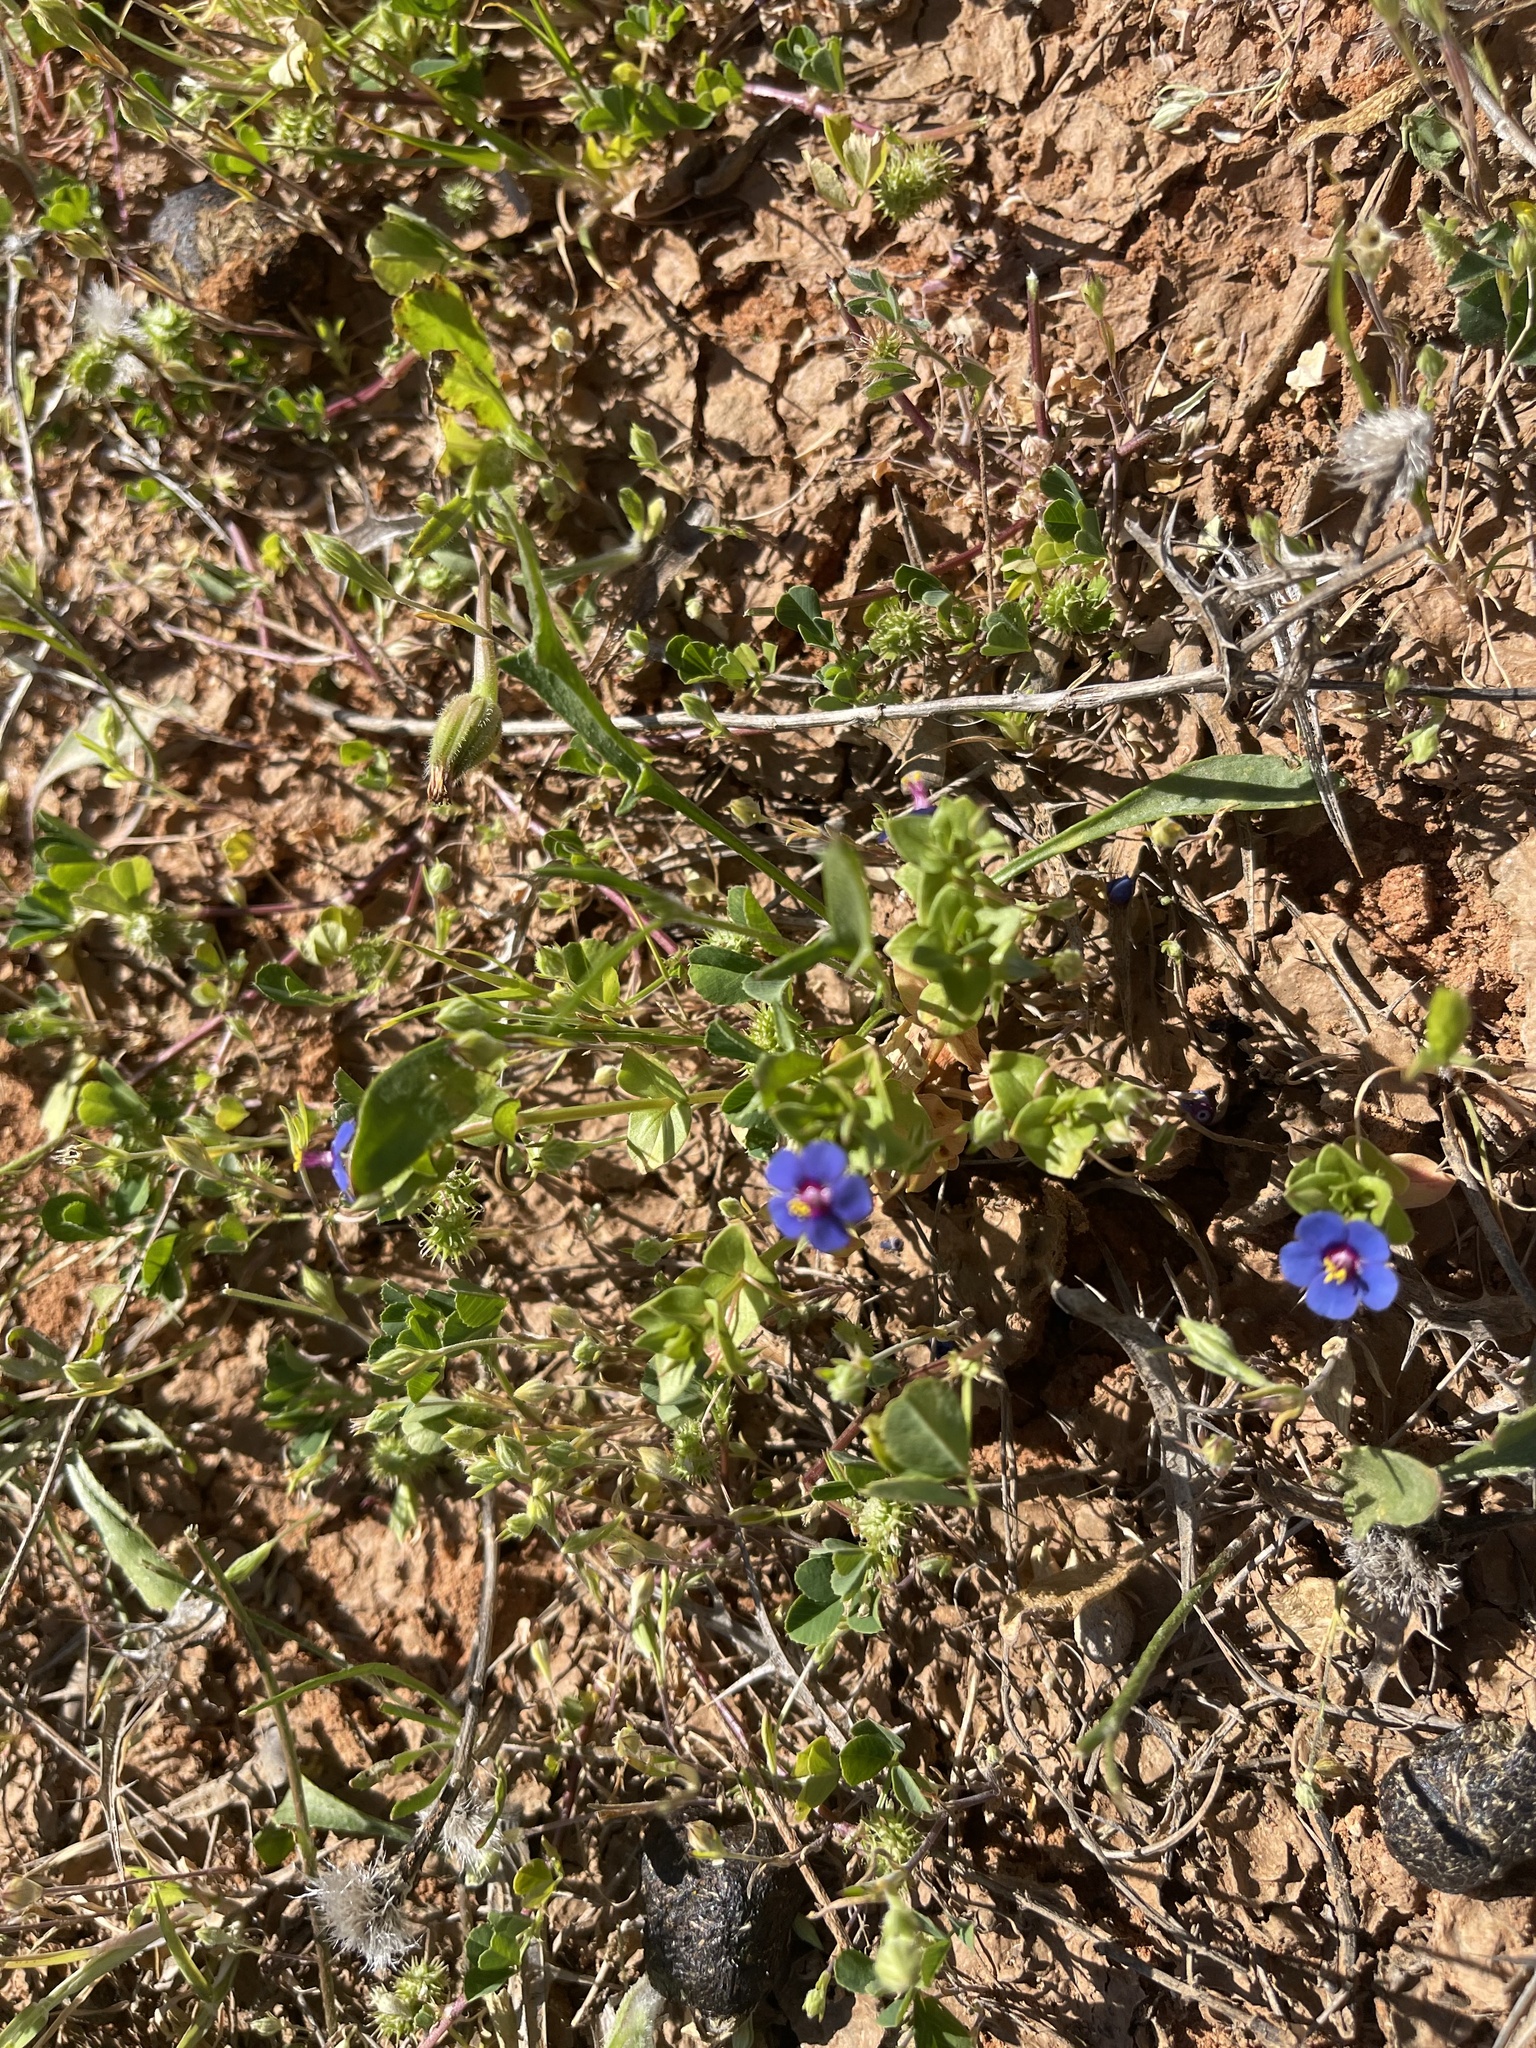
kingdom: Plantae
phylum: Tracheophyta
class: Magnoliopsida
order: Ericales
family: Primulaceae
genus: Lysimachia
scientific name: Lysimachia loeflingii
